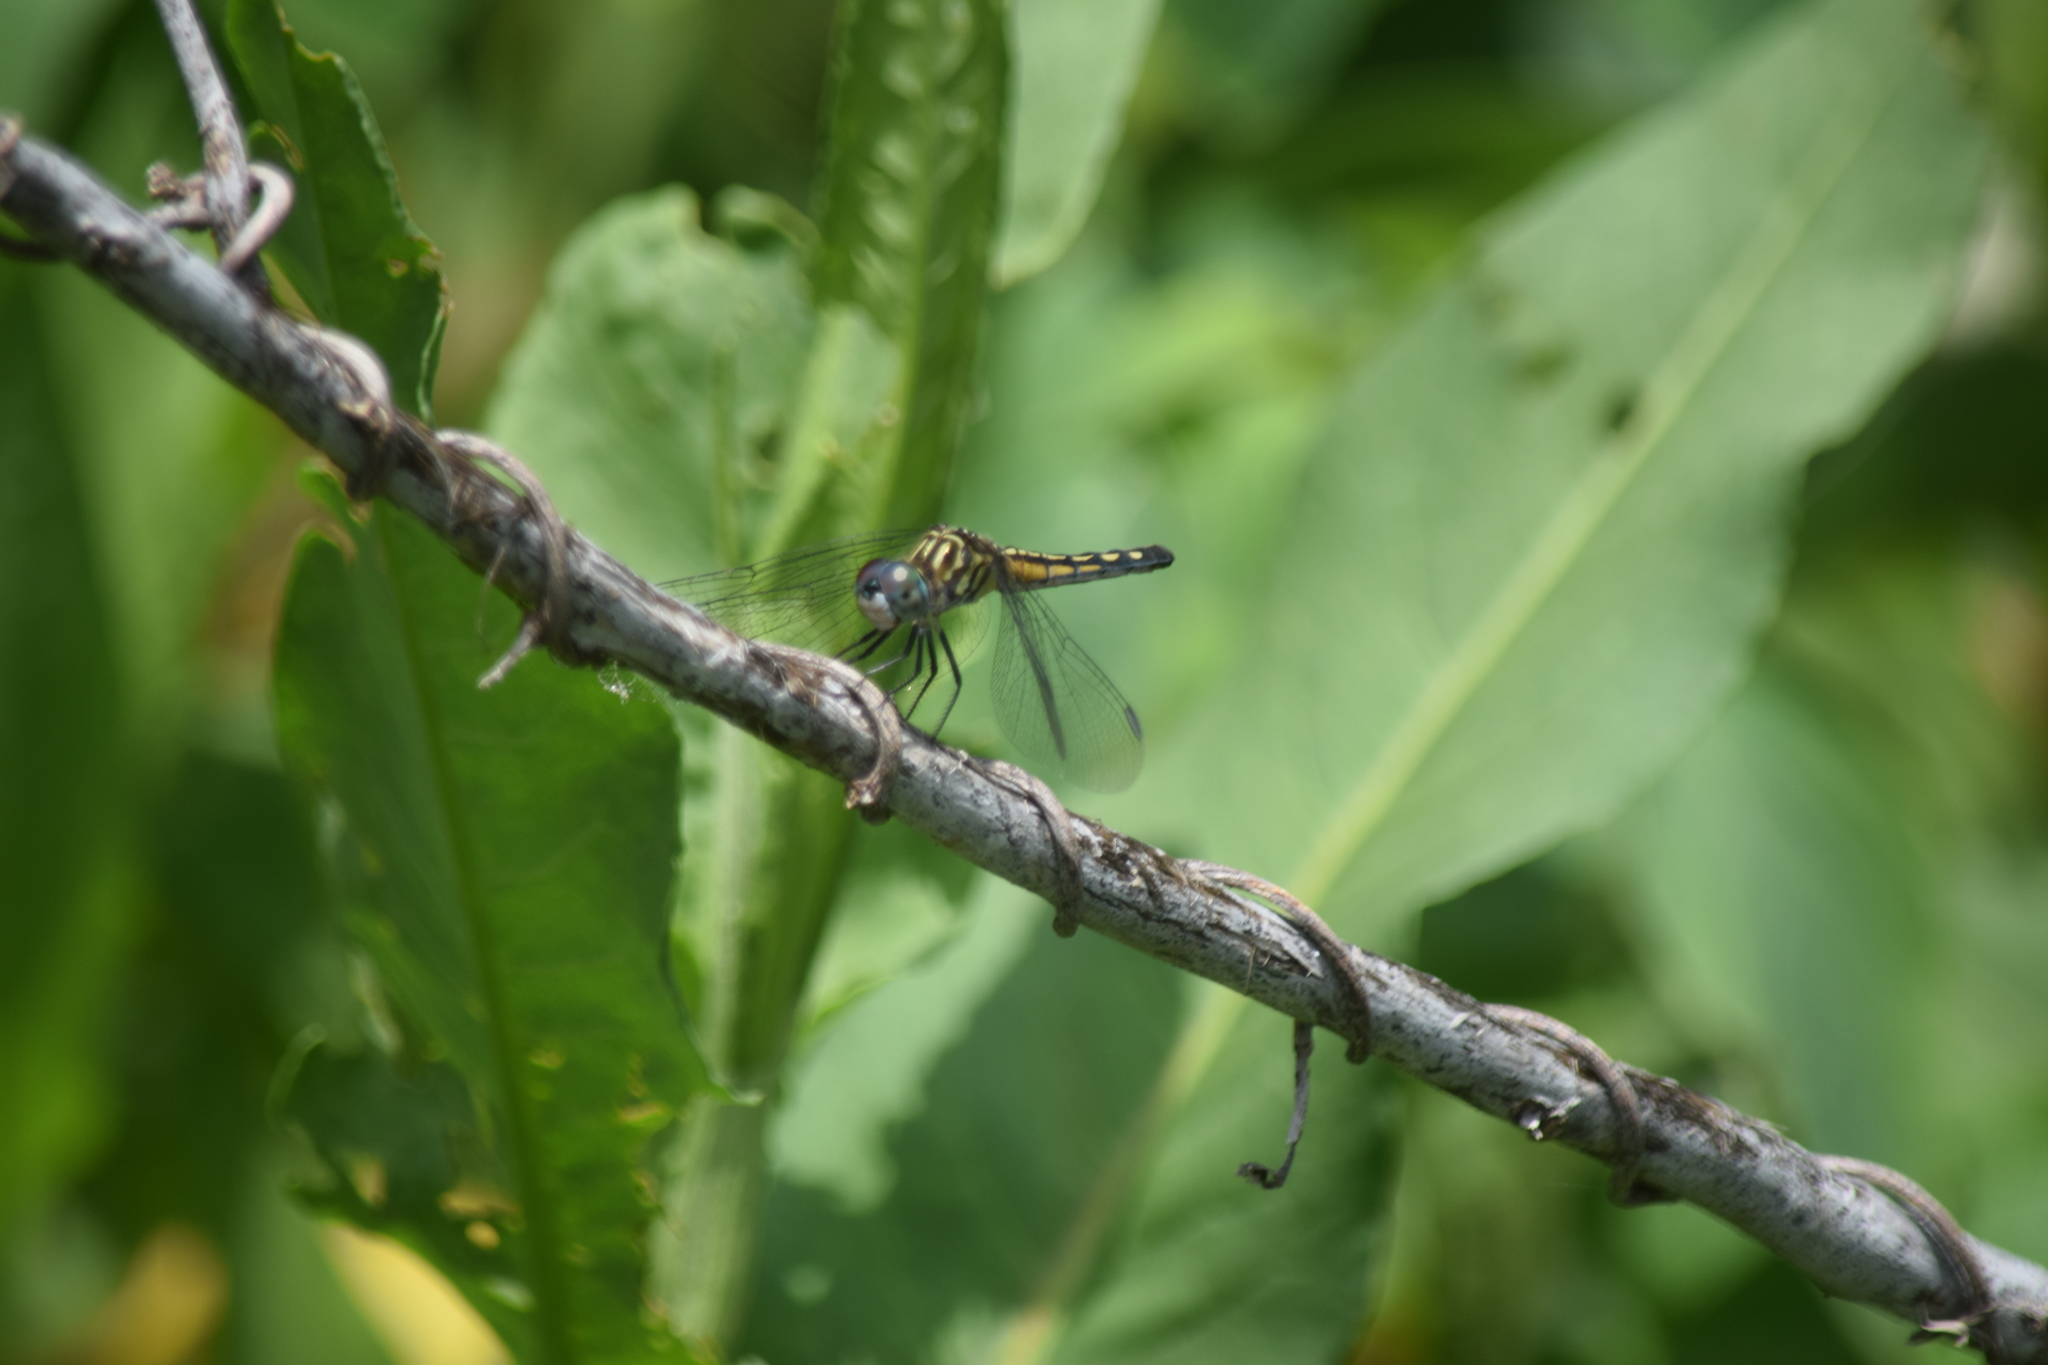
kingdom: Animalia
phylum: Arthropoda
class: Insecta
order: Odonata
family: Libellulidae
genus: Pachydiplax
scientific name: Pachydiplax longipennis
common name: Blue dasher
